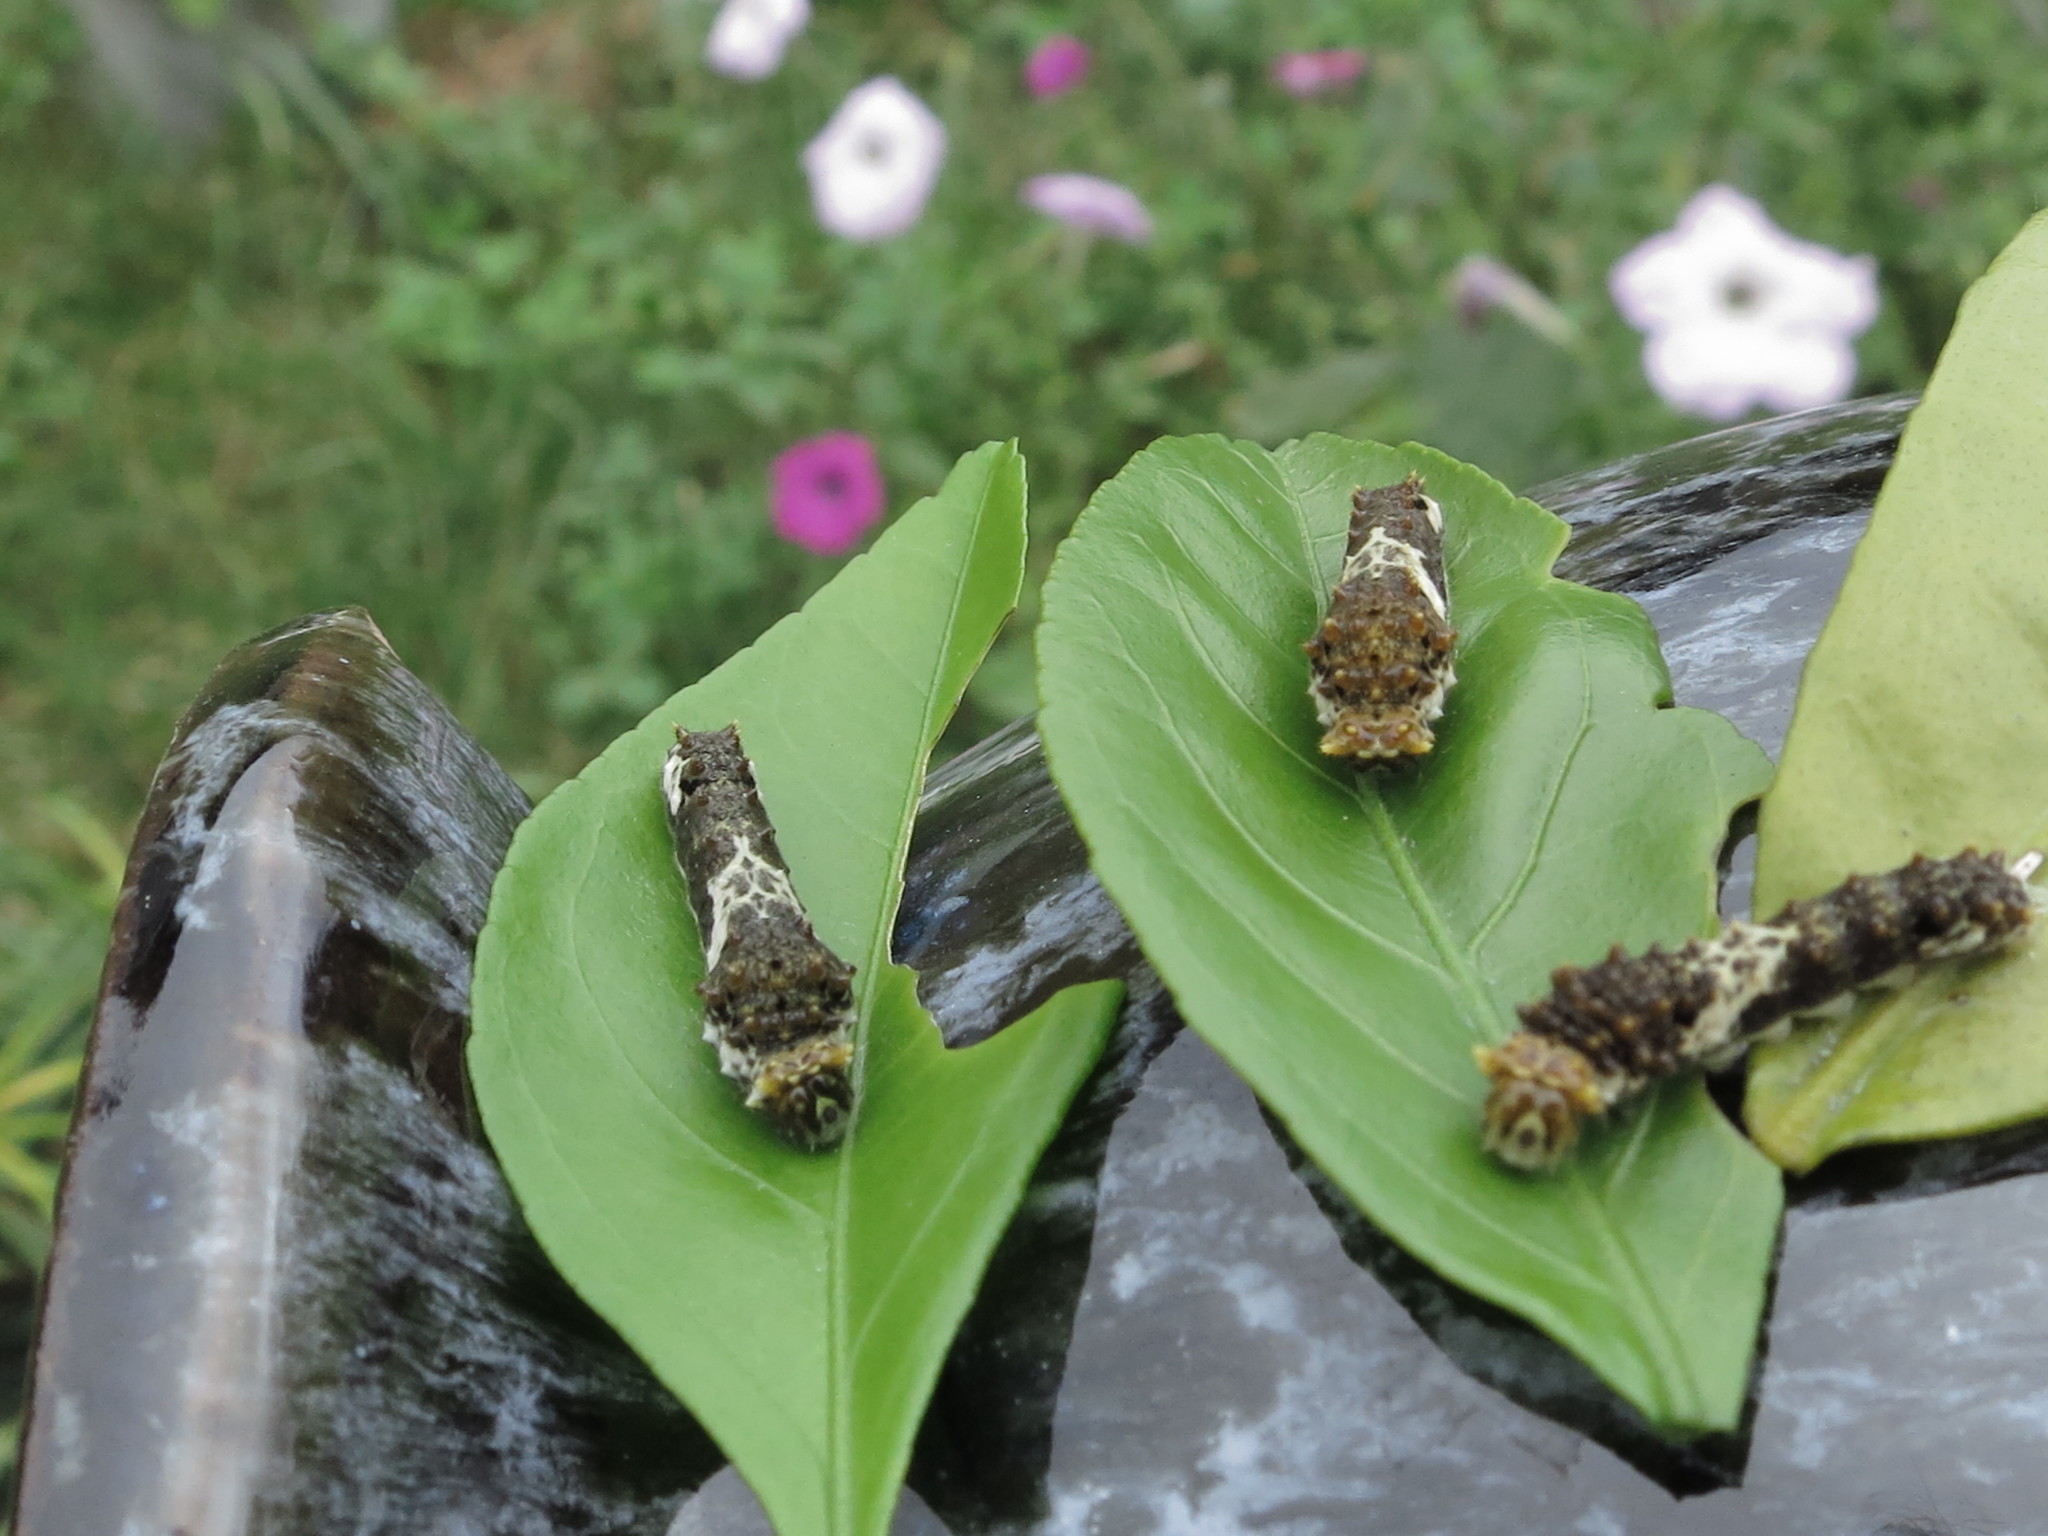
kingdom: Animalia
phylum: Arthropoda
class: Insecta
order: Lepidoptera
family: Papilionidae
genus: Papilio
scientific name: Papilio xuthus
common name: Asian swallowtail
